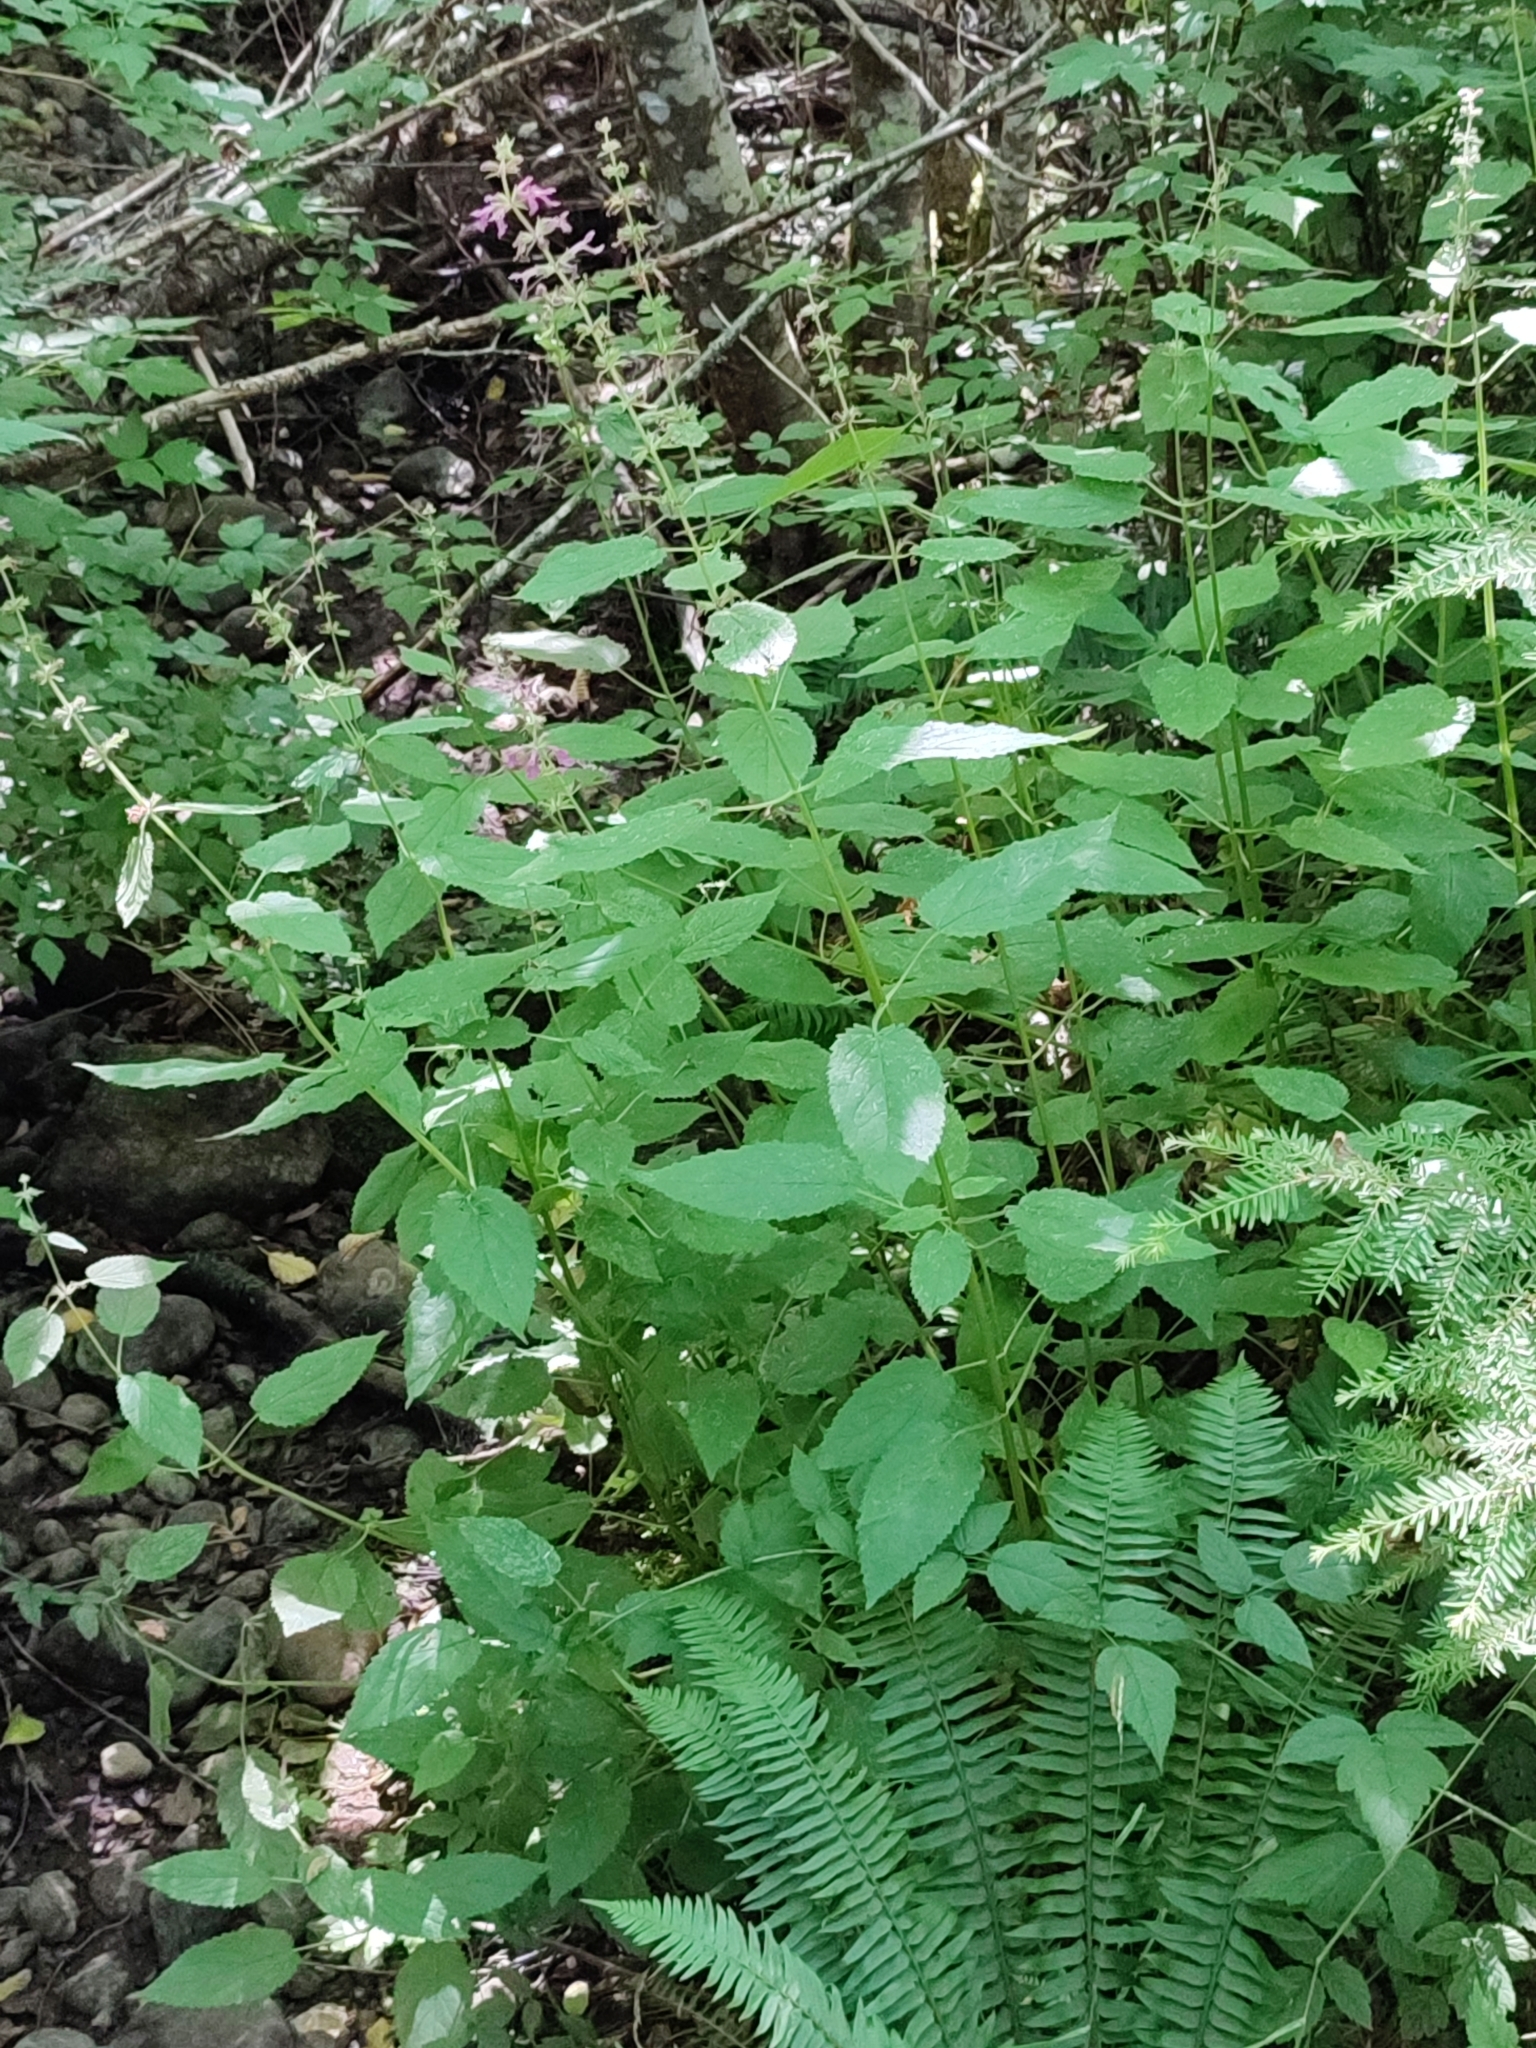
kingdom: Plantae
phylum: Tracheophyta
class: Magnoliopsida
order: Lamiales
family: Lamiaceae
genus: Stachys
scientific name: Stachys chamissonis
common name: Coastal hedge-nettle
